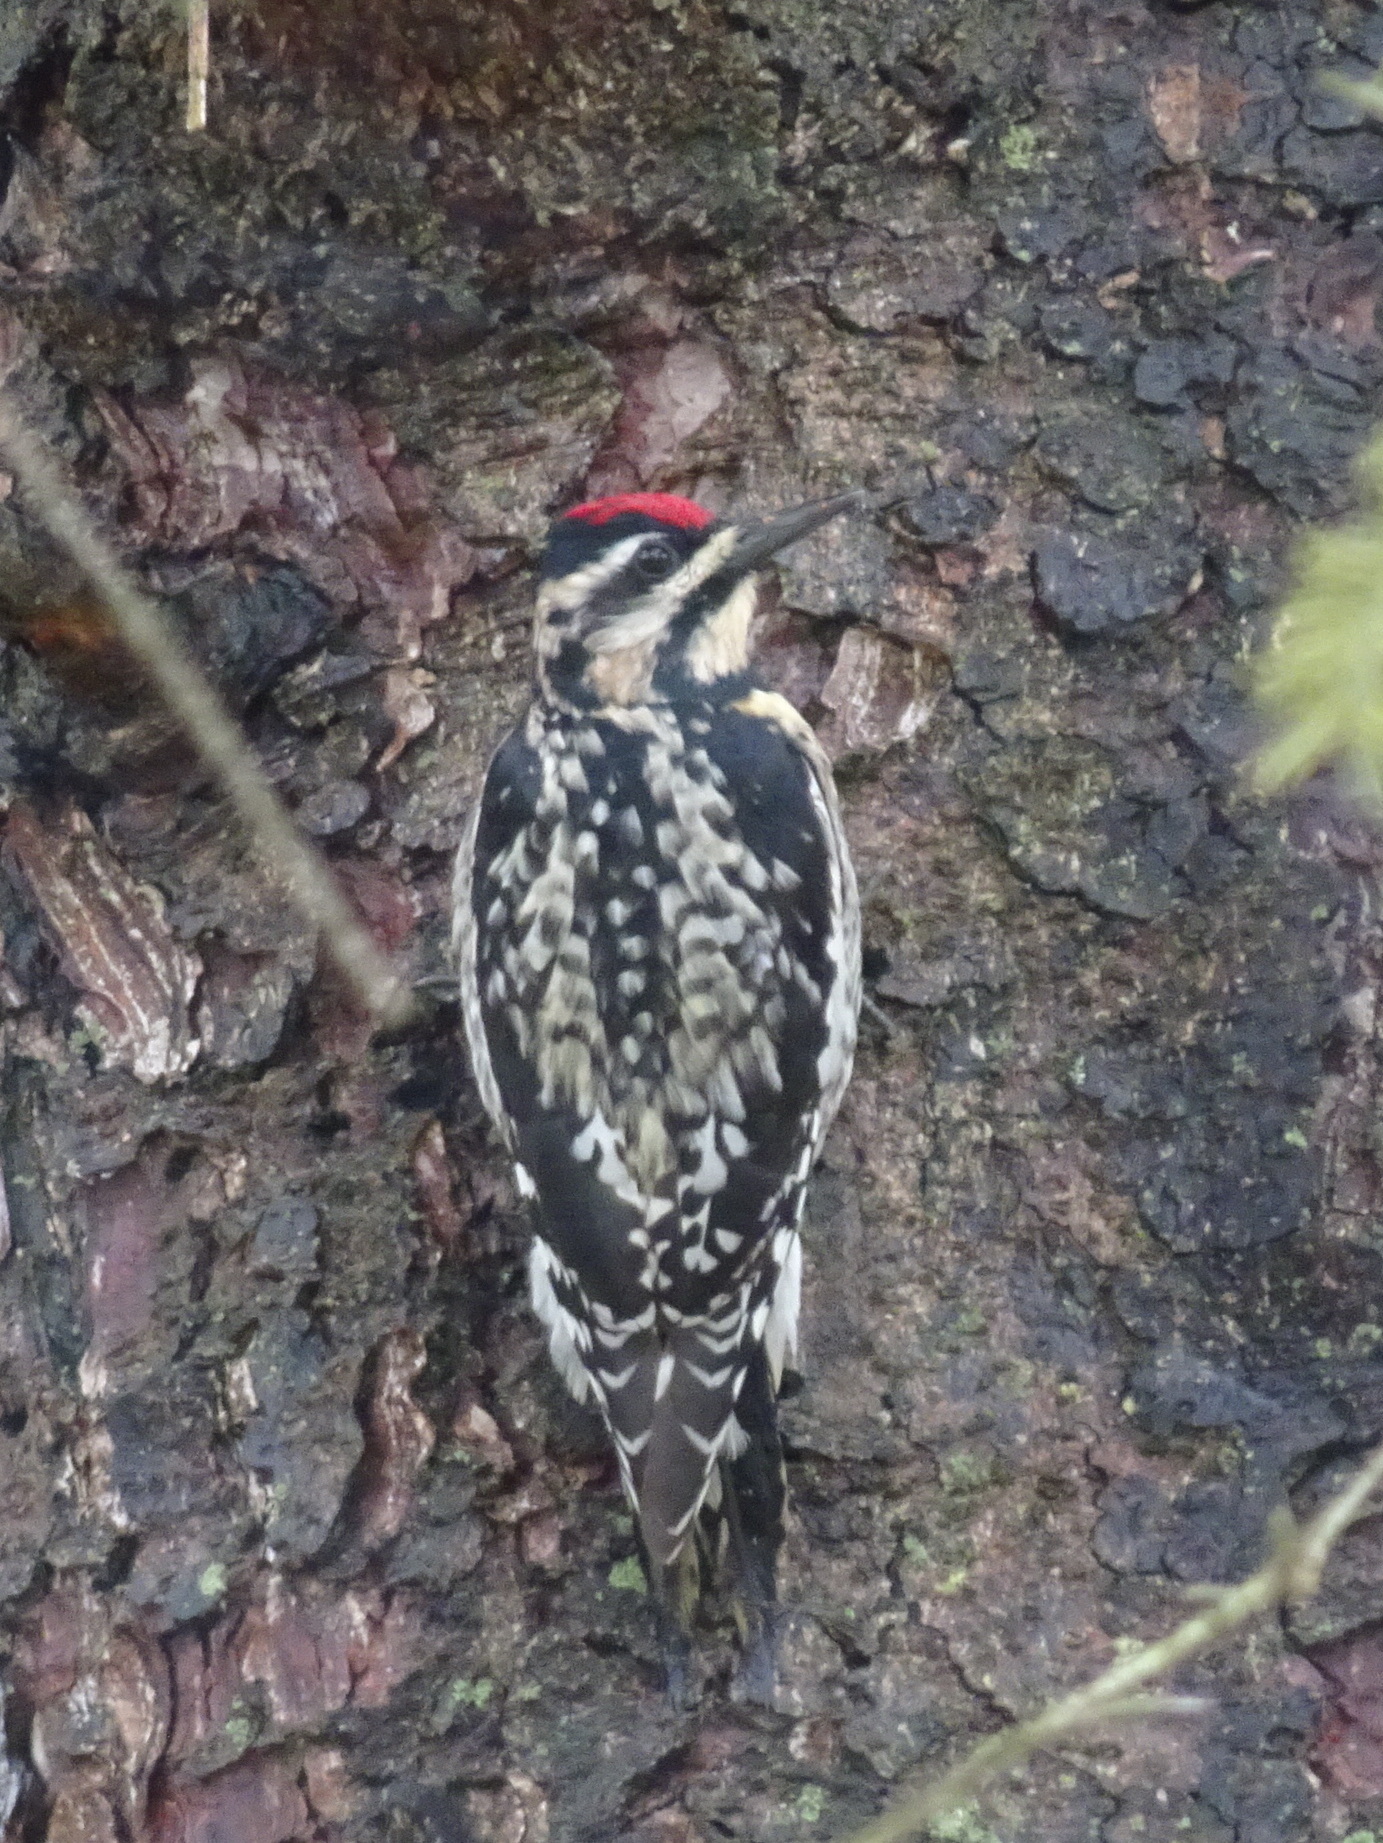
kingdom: Animalia
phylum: Chordata
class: Aves
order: Piciformes
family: Picidae
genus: Sphyrapicus
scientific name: Sphyrapicus varius
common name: Yellow-bellied sapsucker
